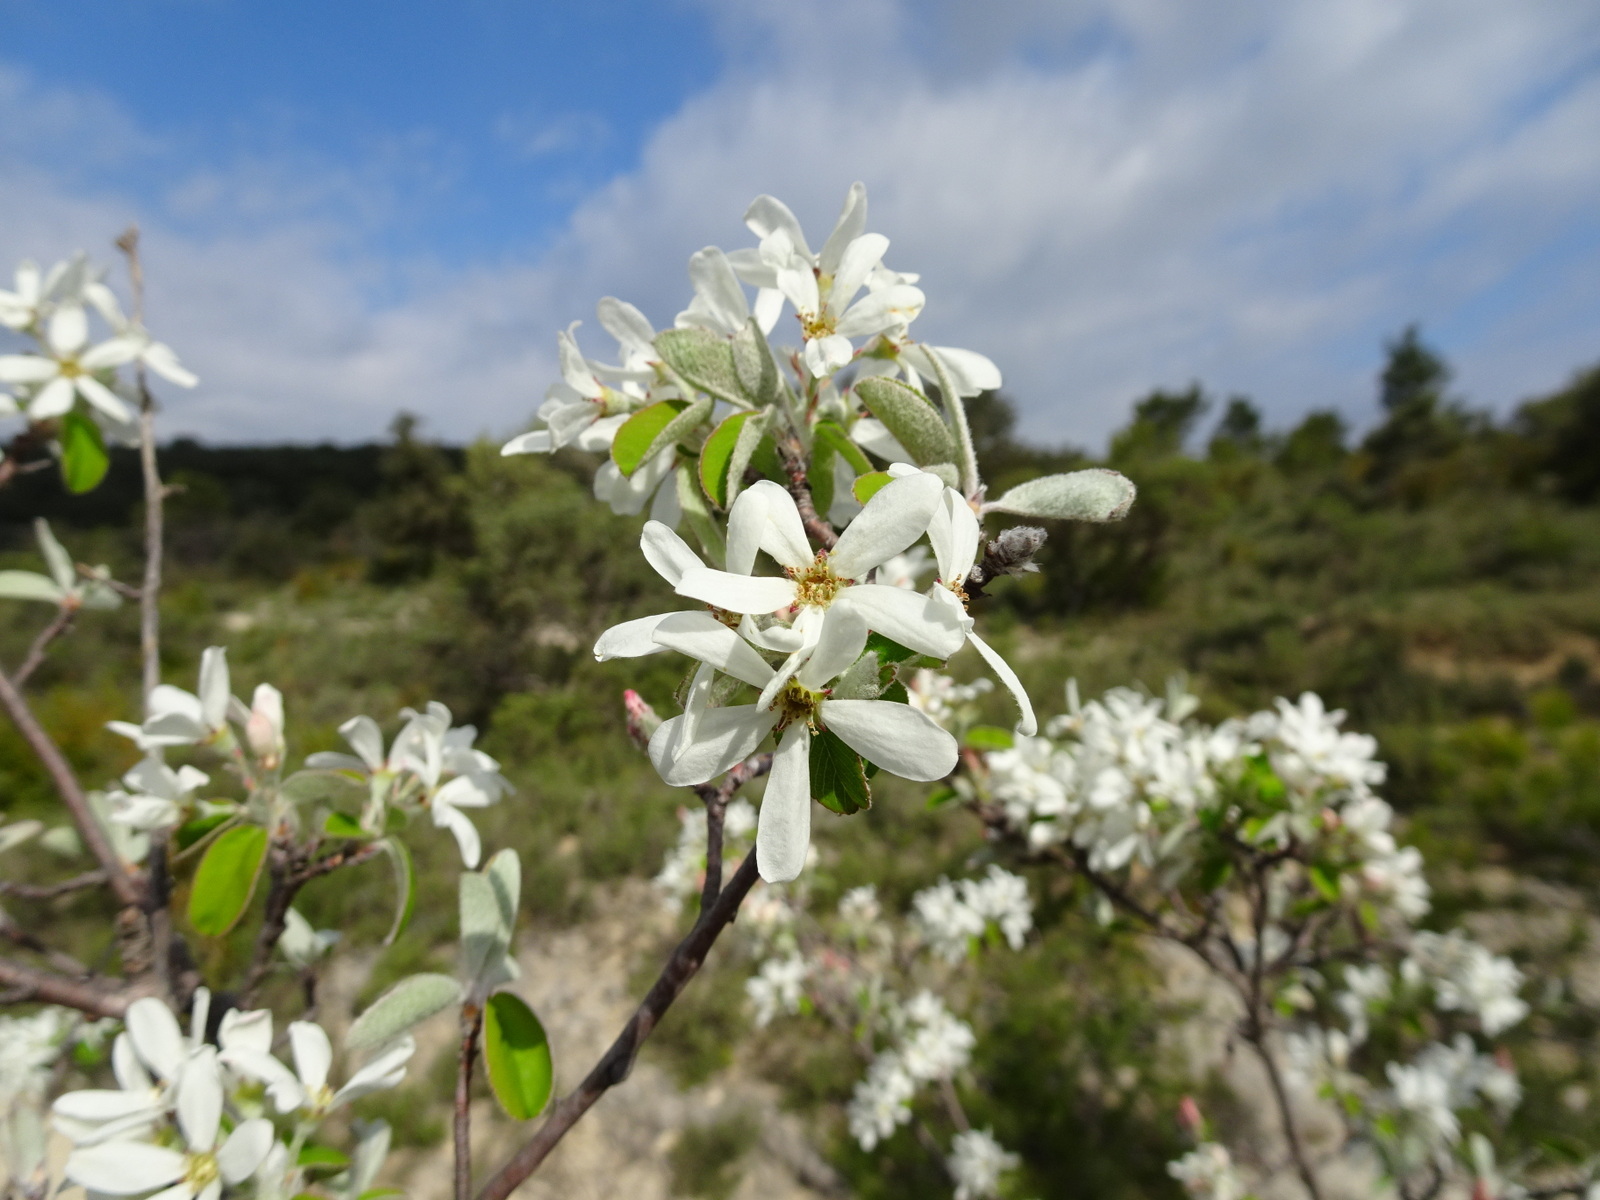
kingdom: Plantae
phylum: Tracheophyta
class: Magnoliopsida
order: Rosales
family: Rosaceae
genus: Amelanchier
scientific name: Amelanchier ovalis
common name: Serviceberry
